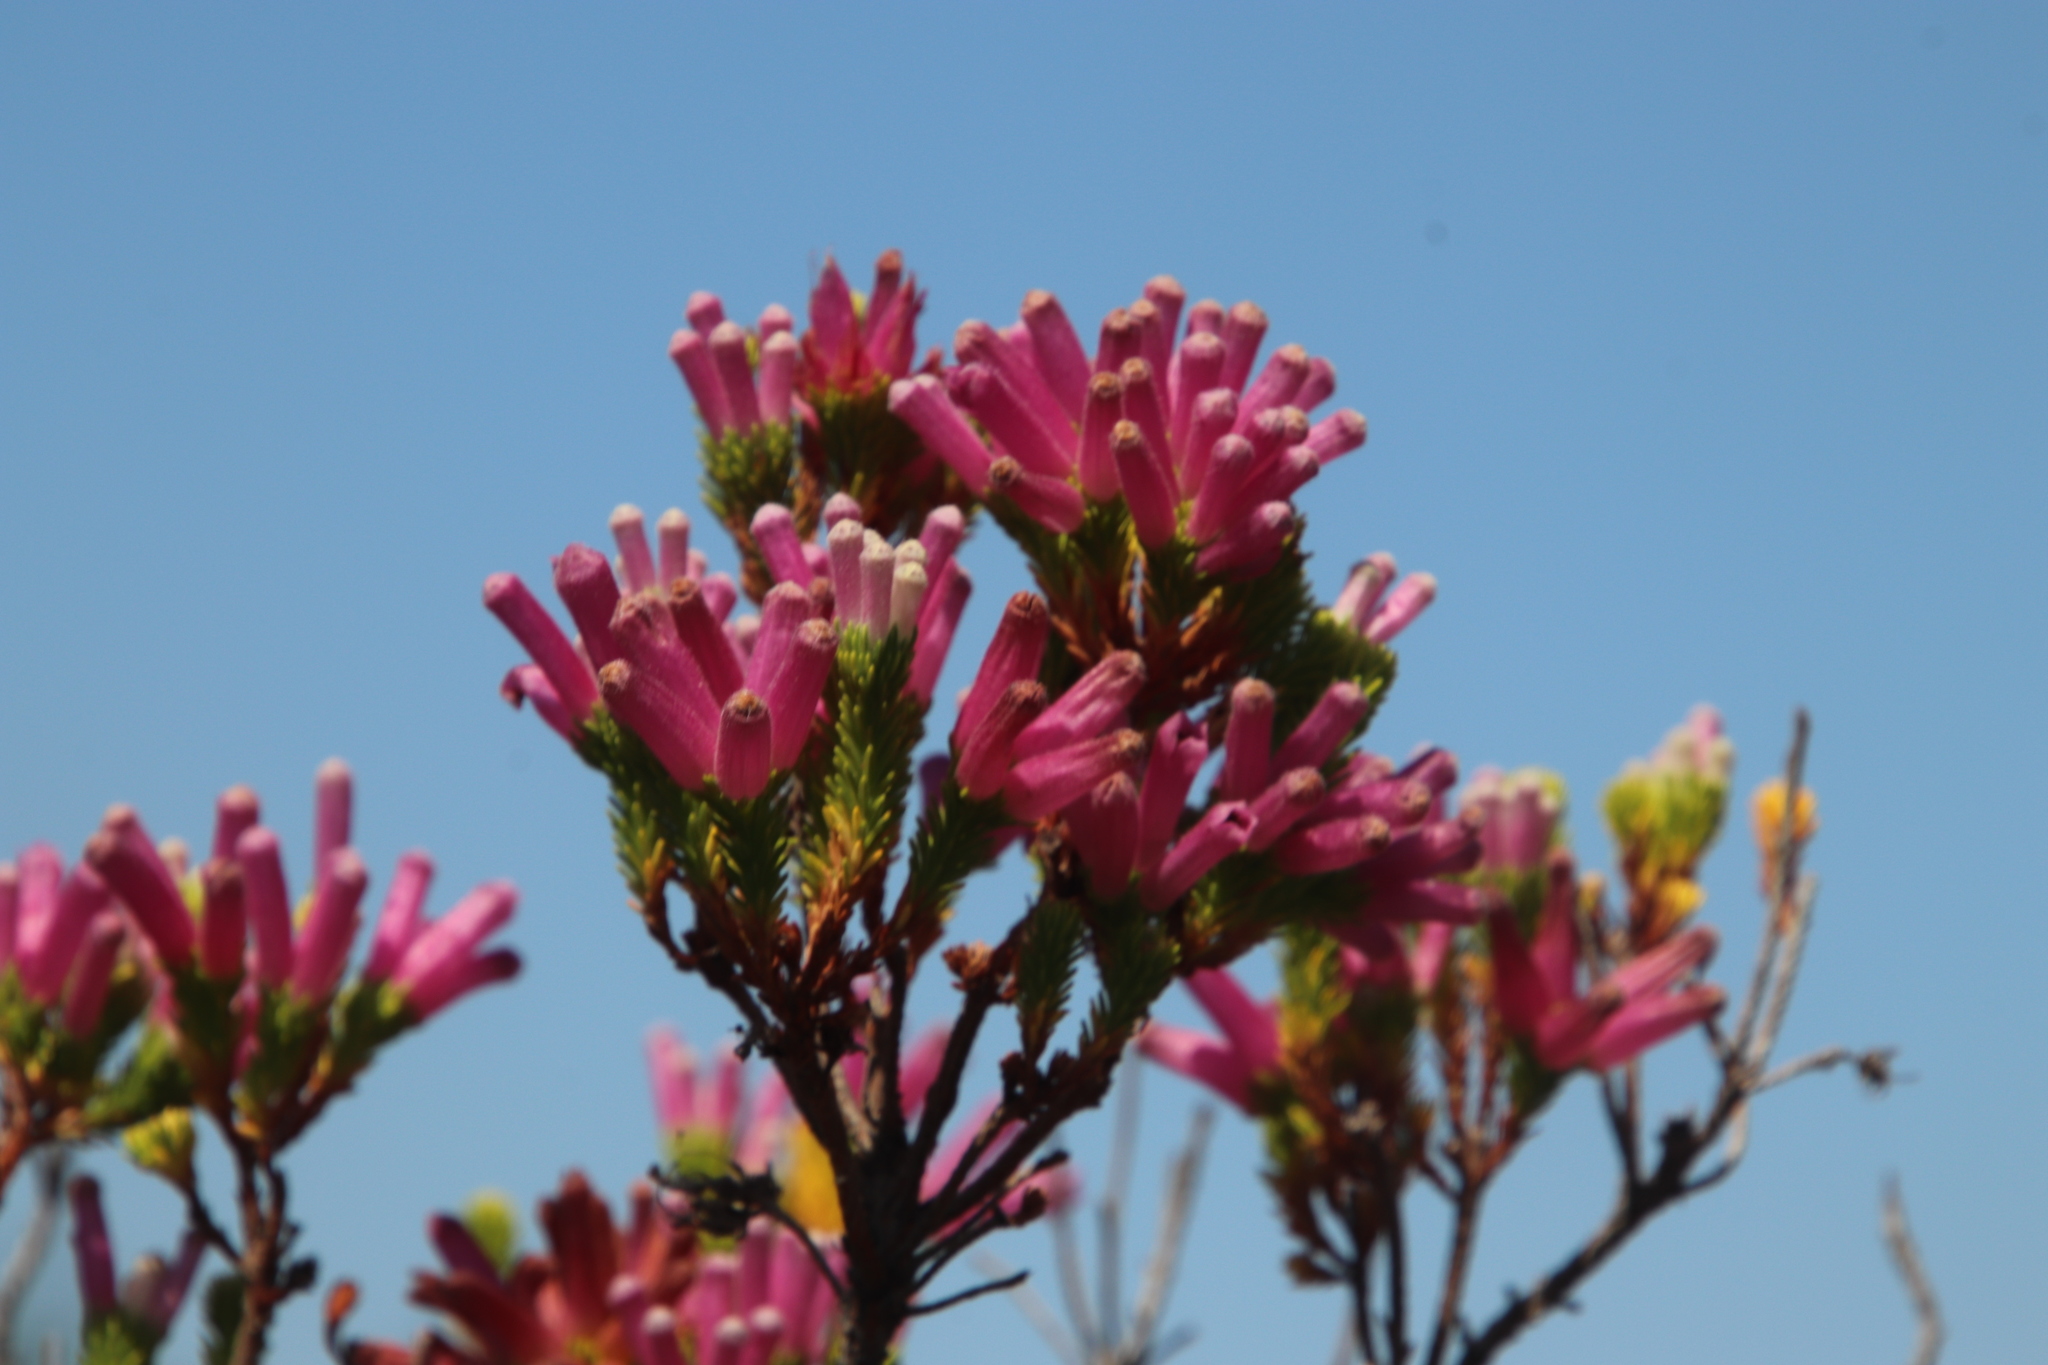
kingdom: Plantae
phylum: Tracheophyta
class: Magnoliopsida
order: Ericales
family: Ericaceae
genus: Erica
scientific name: Erica verticillata
